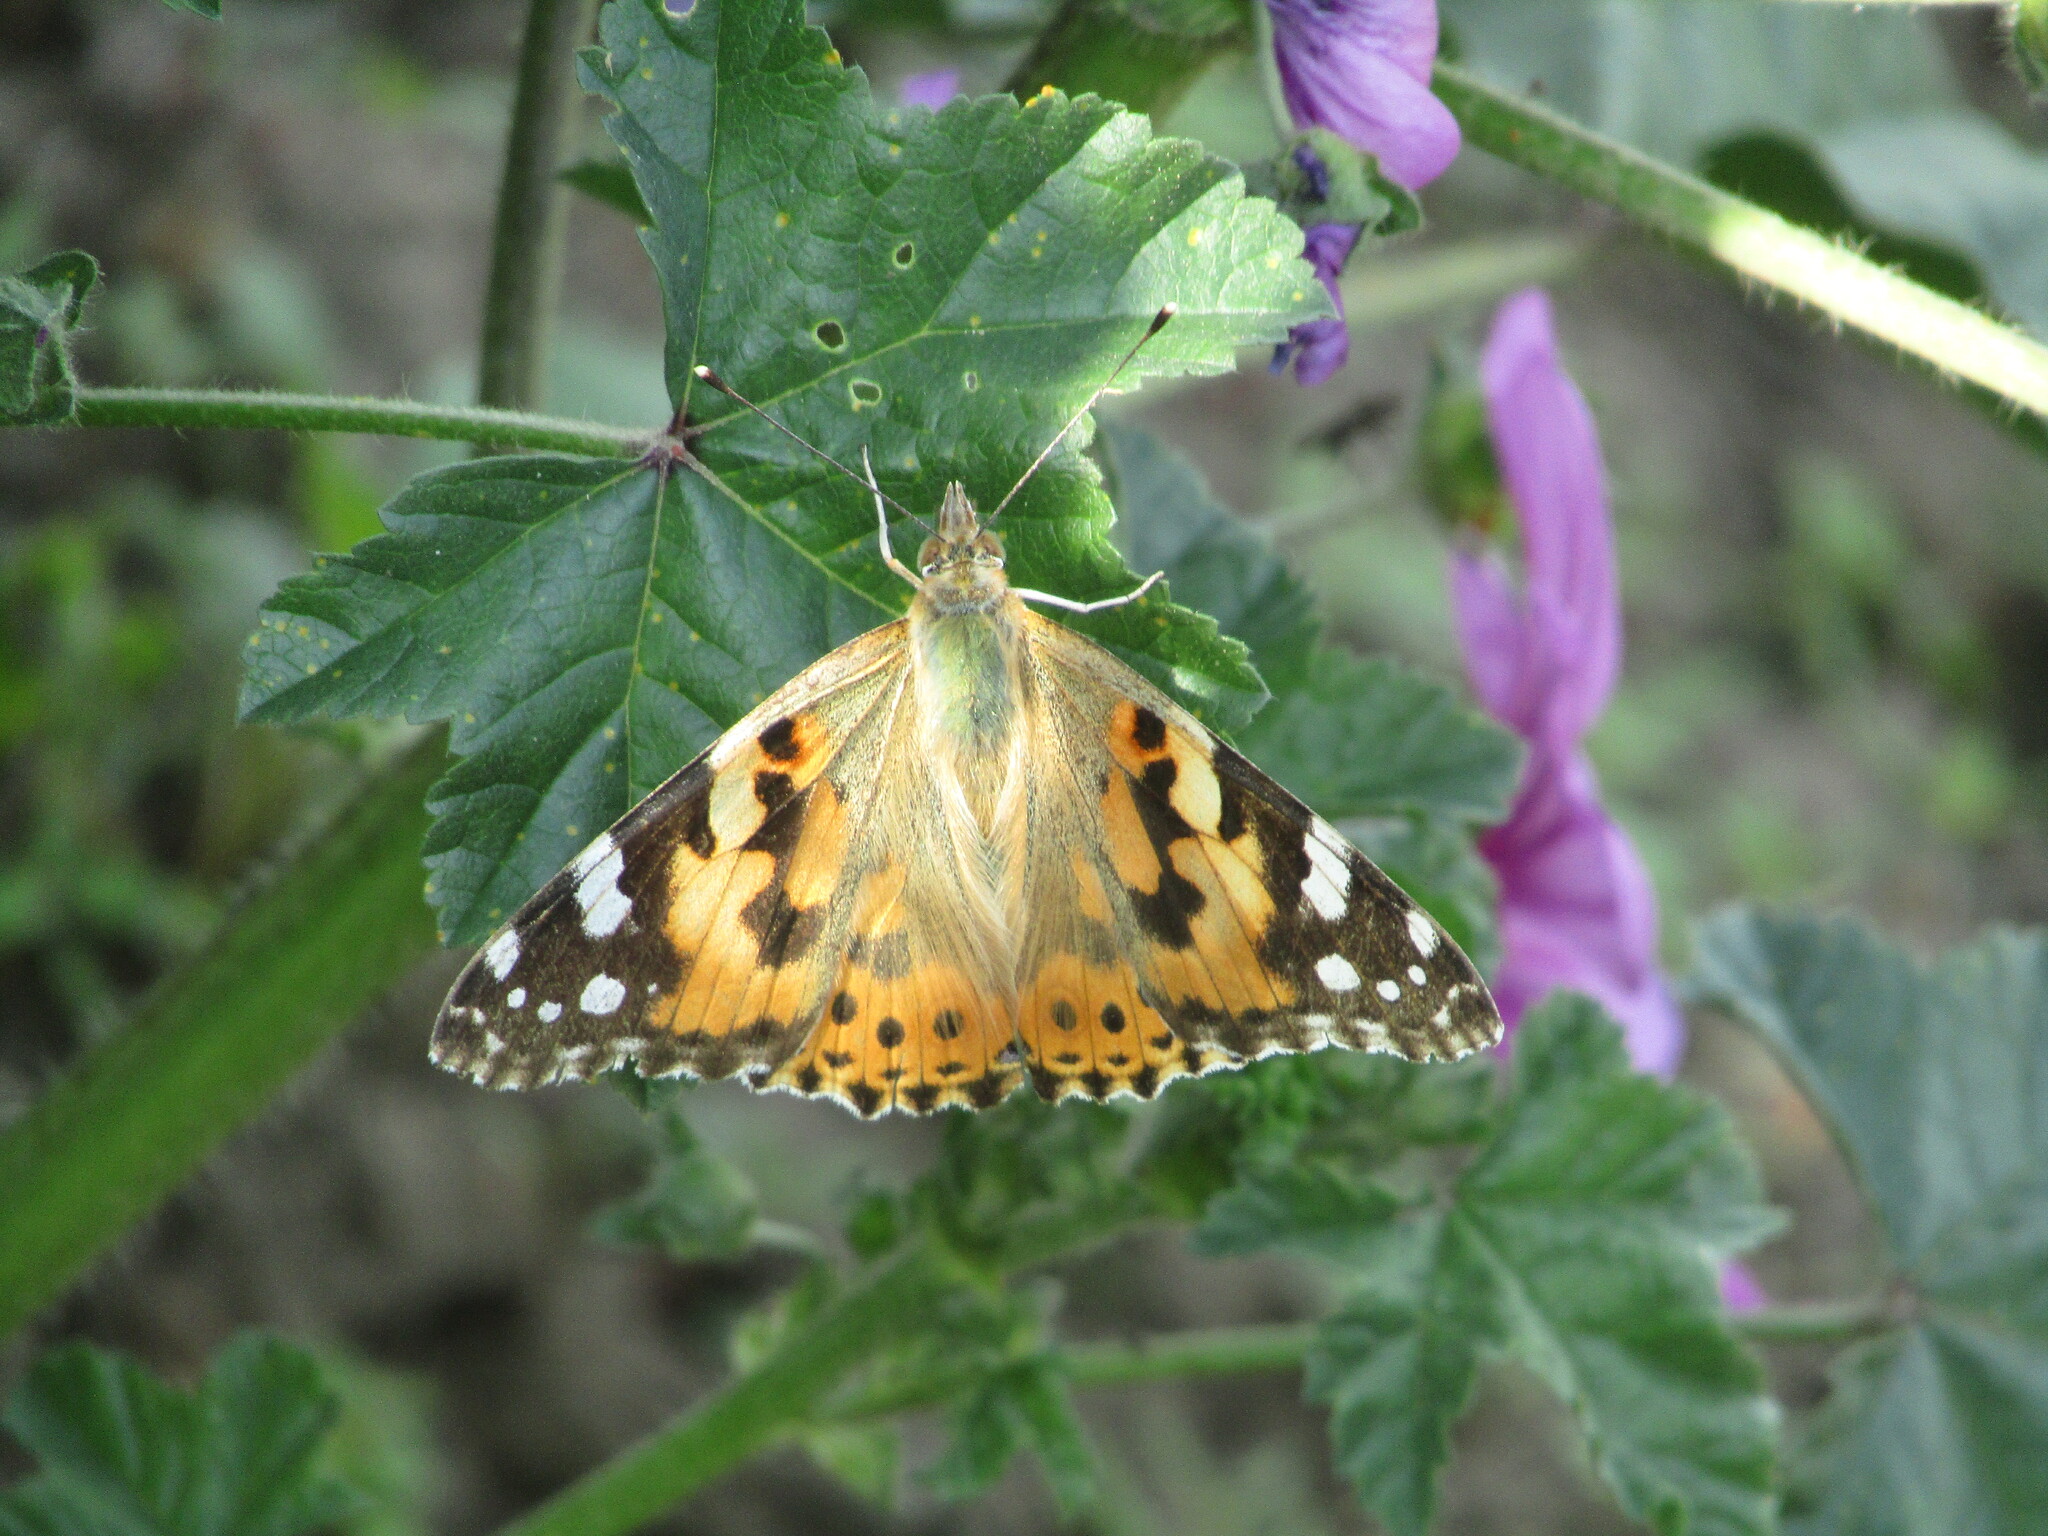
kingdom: Animalia
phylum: Arthropoda
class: Insecta
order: Lepidoptera
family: Nymphalidae
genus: Vanessa
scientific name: Vanessa cardui
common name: Painted lady
